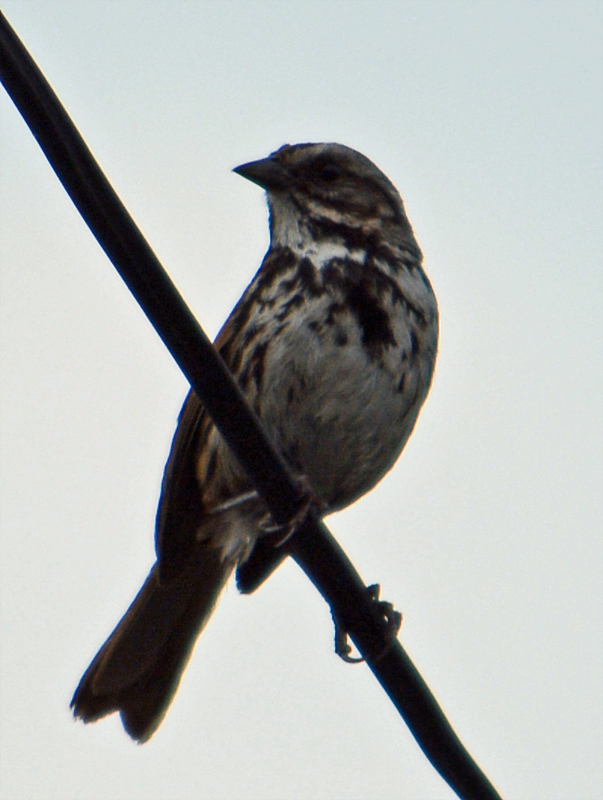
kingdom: Animalia
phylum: Chordata
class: Aves
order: Passeriformes
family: Passerellidae
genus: Melospiza
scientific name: Melospiza melodia
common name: Song sparrow
